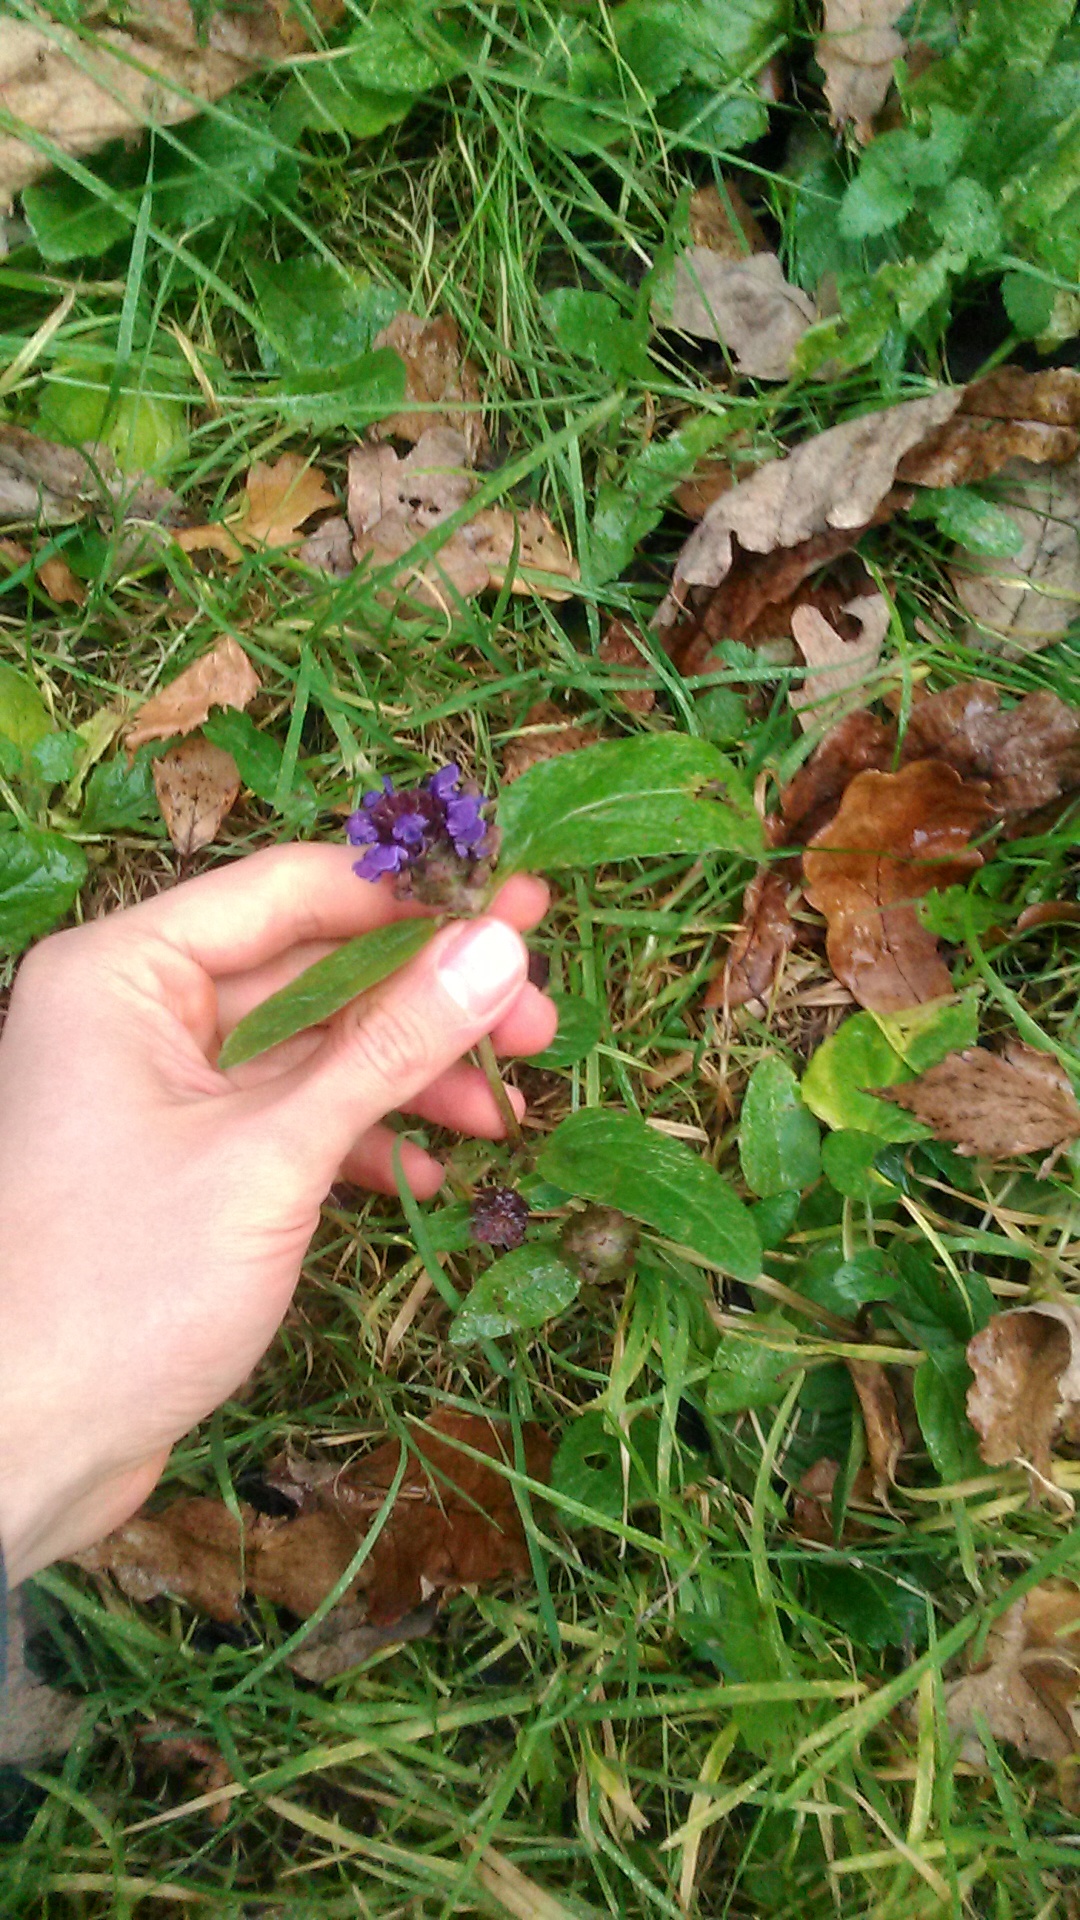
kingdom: Plantae
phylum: Tracheophyta
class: Magnoliopsida
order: Lamiales
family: Lamiaceae
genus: Prunella
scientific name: Prunella vulgaris
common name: Heal-all
